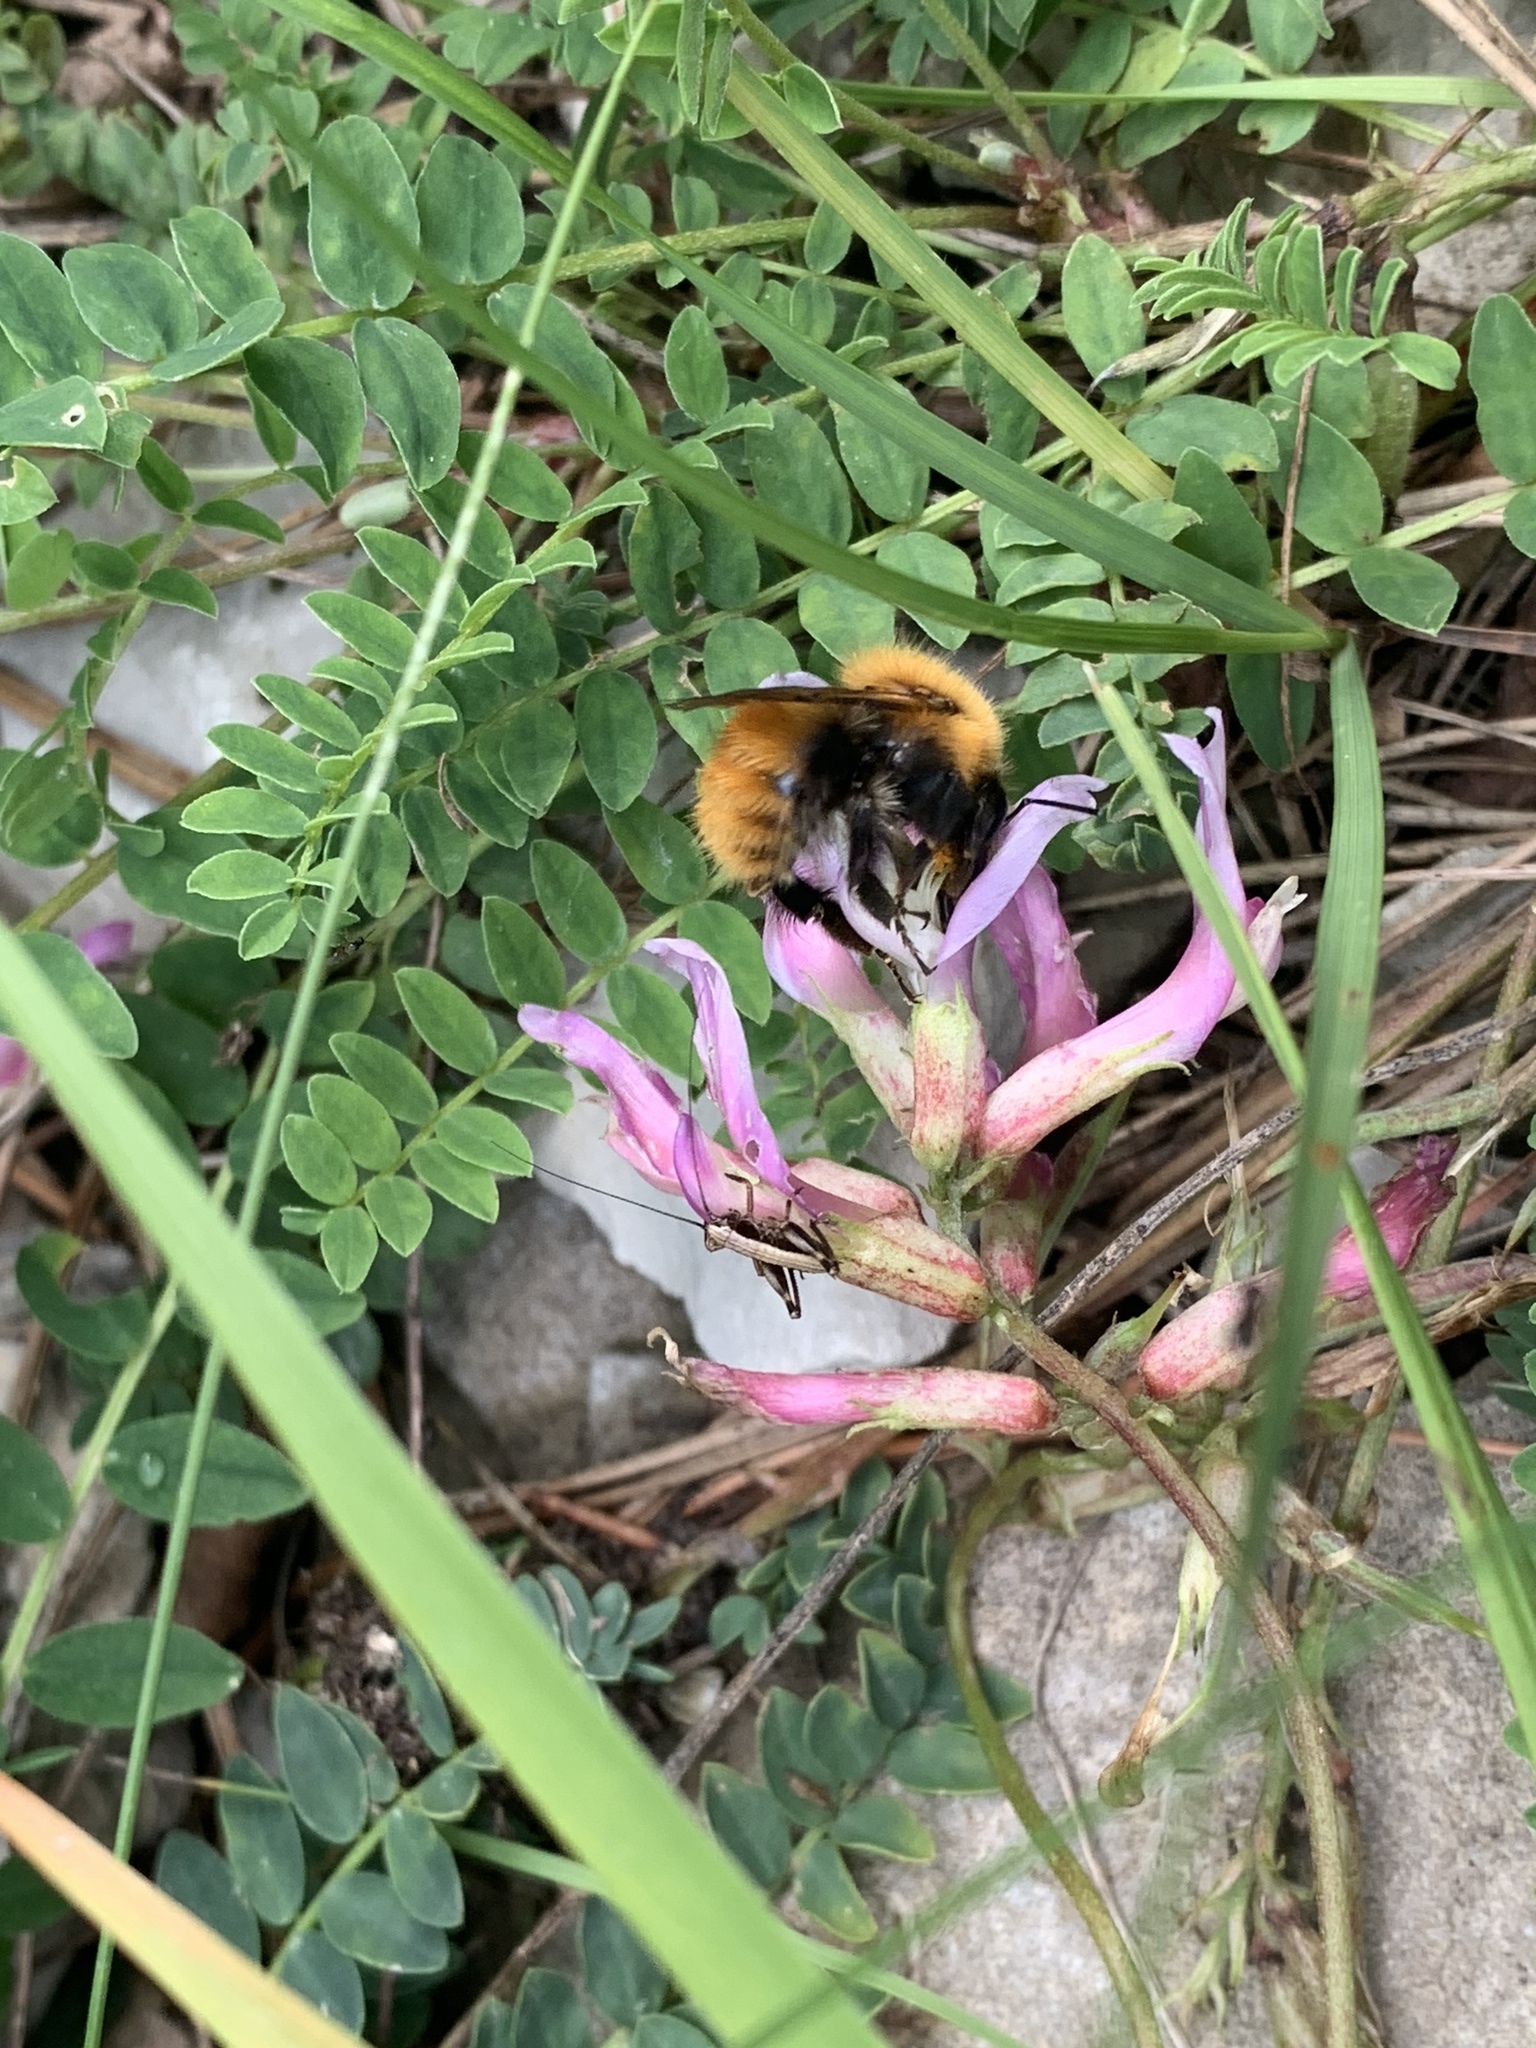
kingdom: Animalia
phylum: Arthropoda
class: Insecta
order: Hymenoptera
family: Apidae
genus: Bombus
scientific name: Bombus pascuorum
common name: Common carder bee
